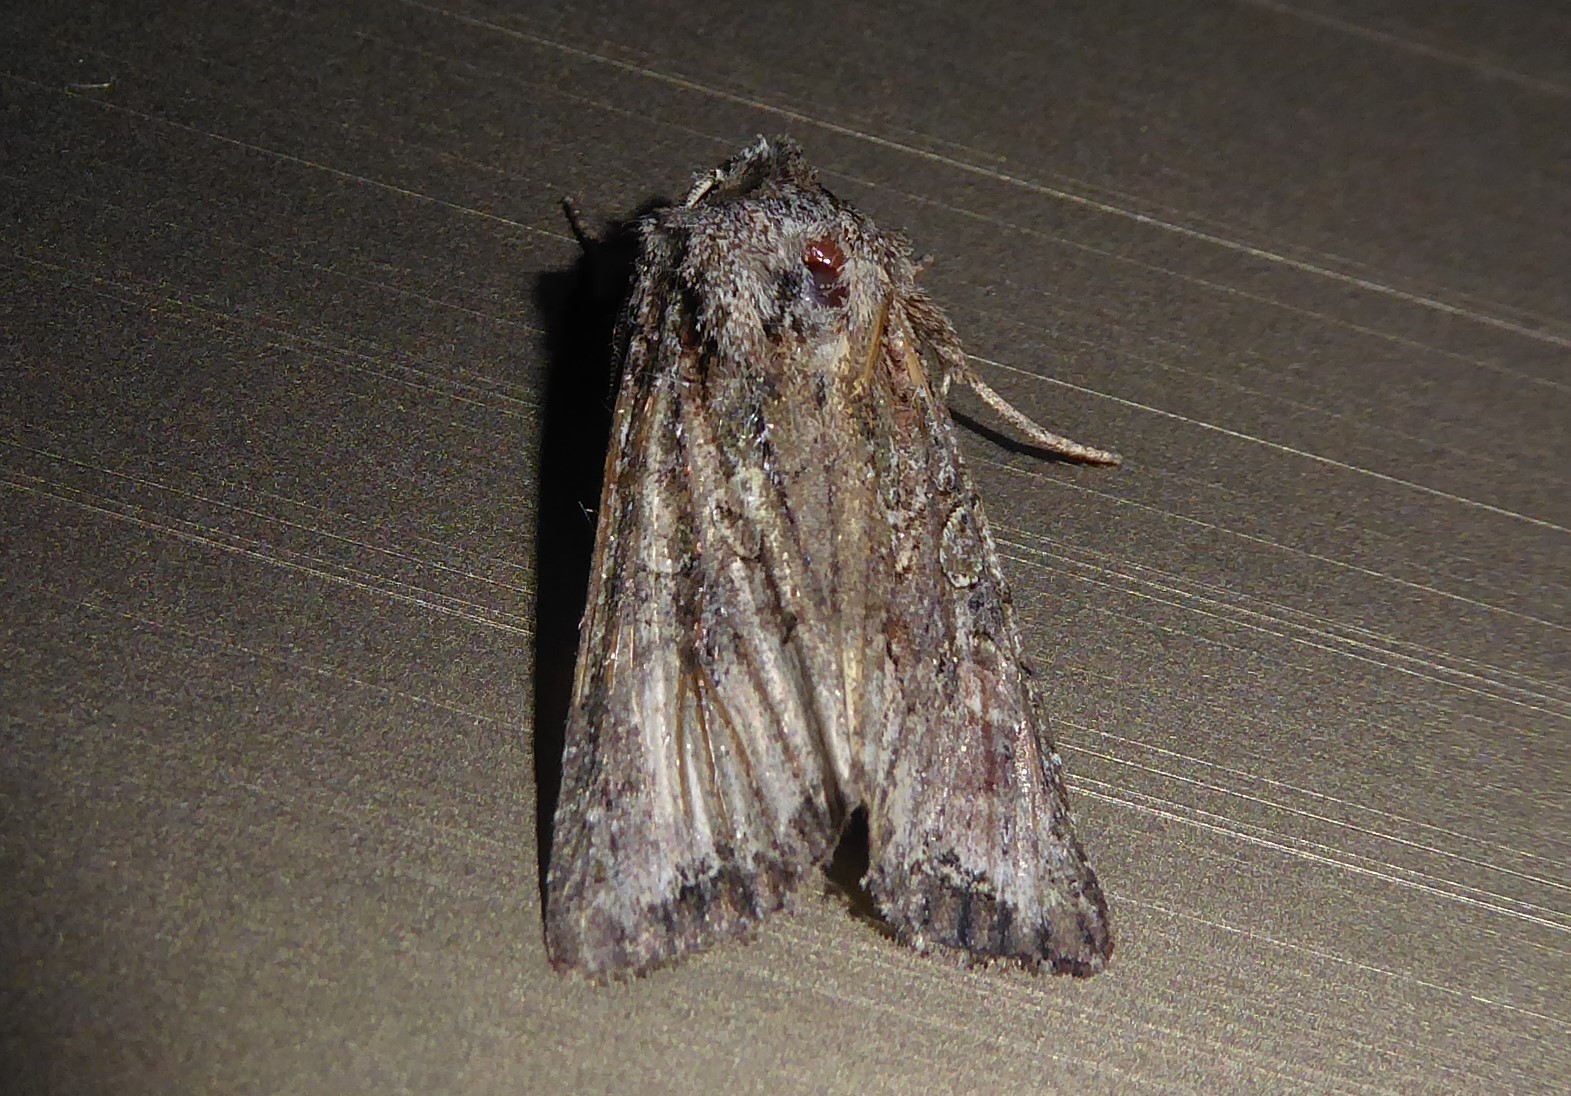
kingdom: Animalia
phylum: Arthropoda
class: Insecta
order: Lepidoptera
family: Noctuidae
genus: Ichneutica
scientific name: Ichneutica mutans
